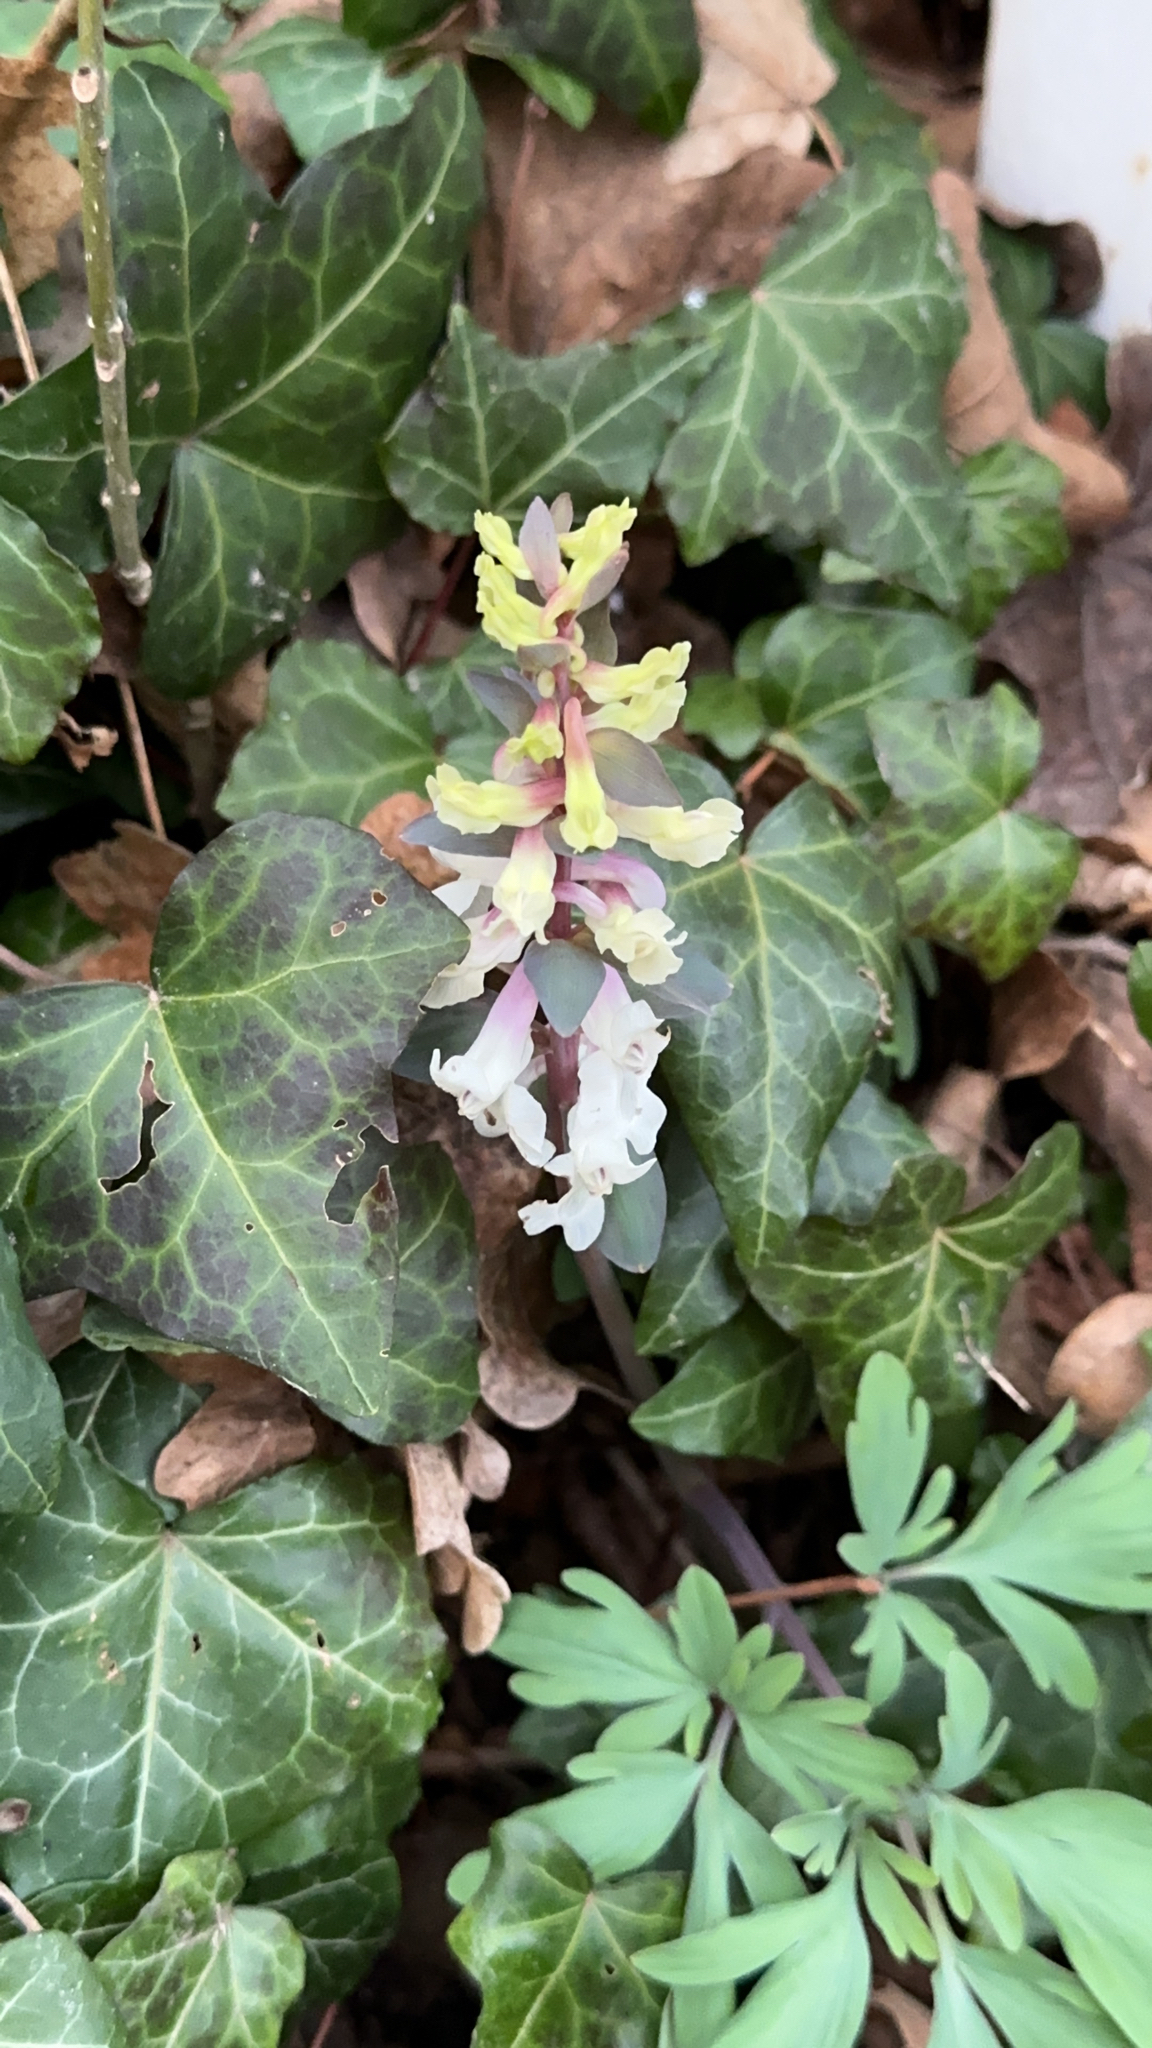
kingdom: Plantae
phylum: Tracheophyta
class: Magnoliopsida
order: Ranunculales
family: Papaveraceae
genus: Corydalis
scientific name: Corydalis cava
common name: Hollowroot
